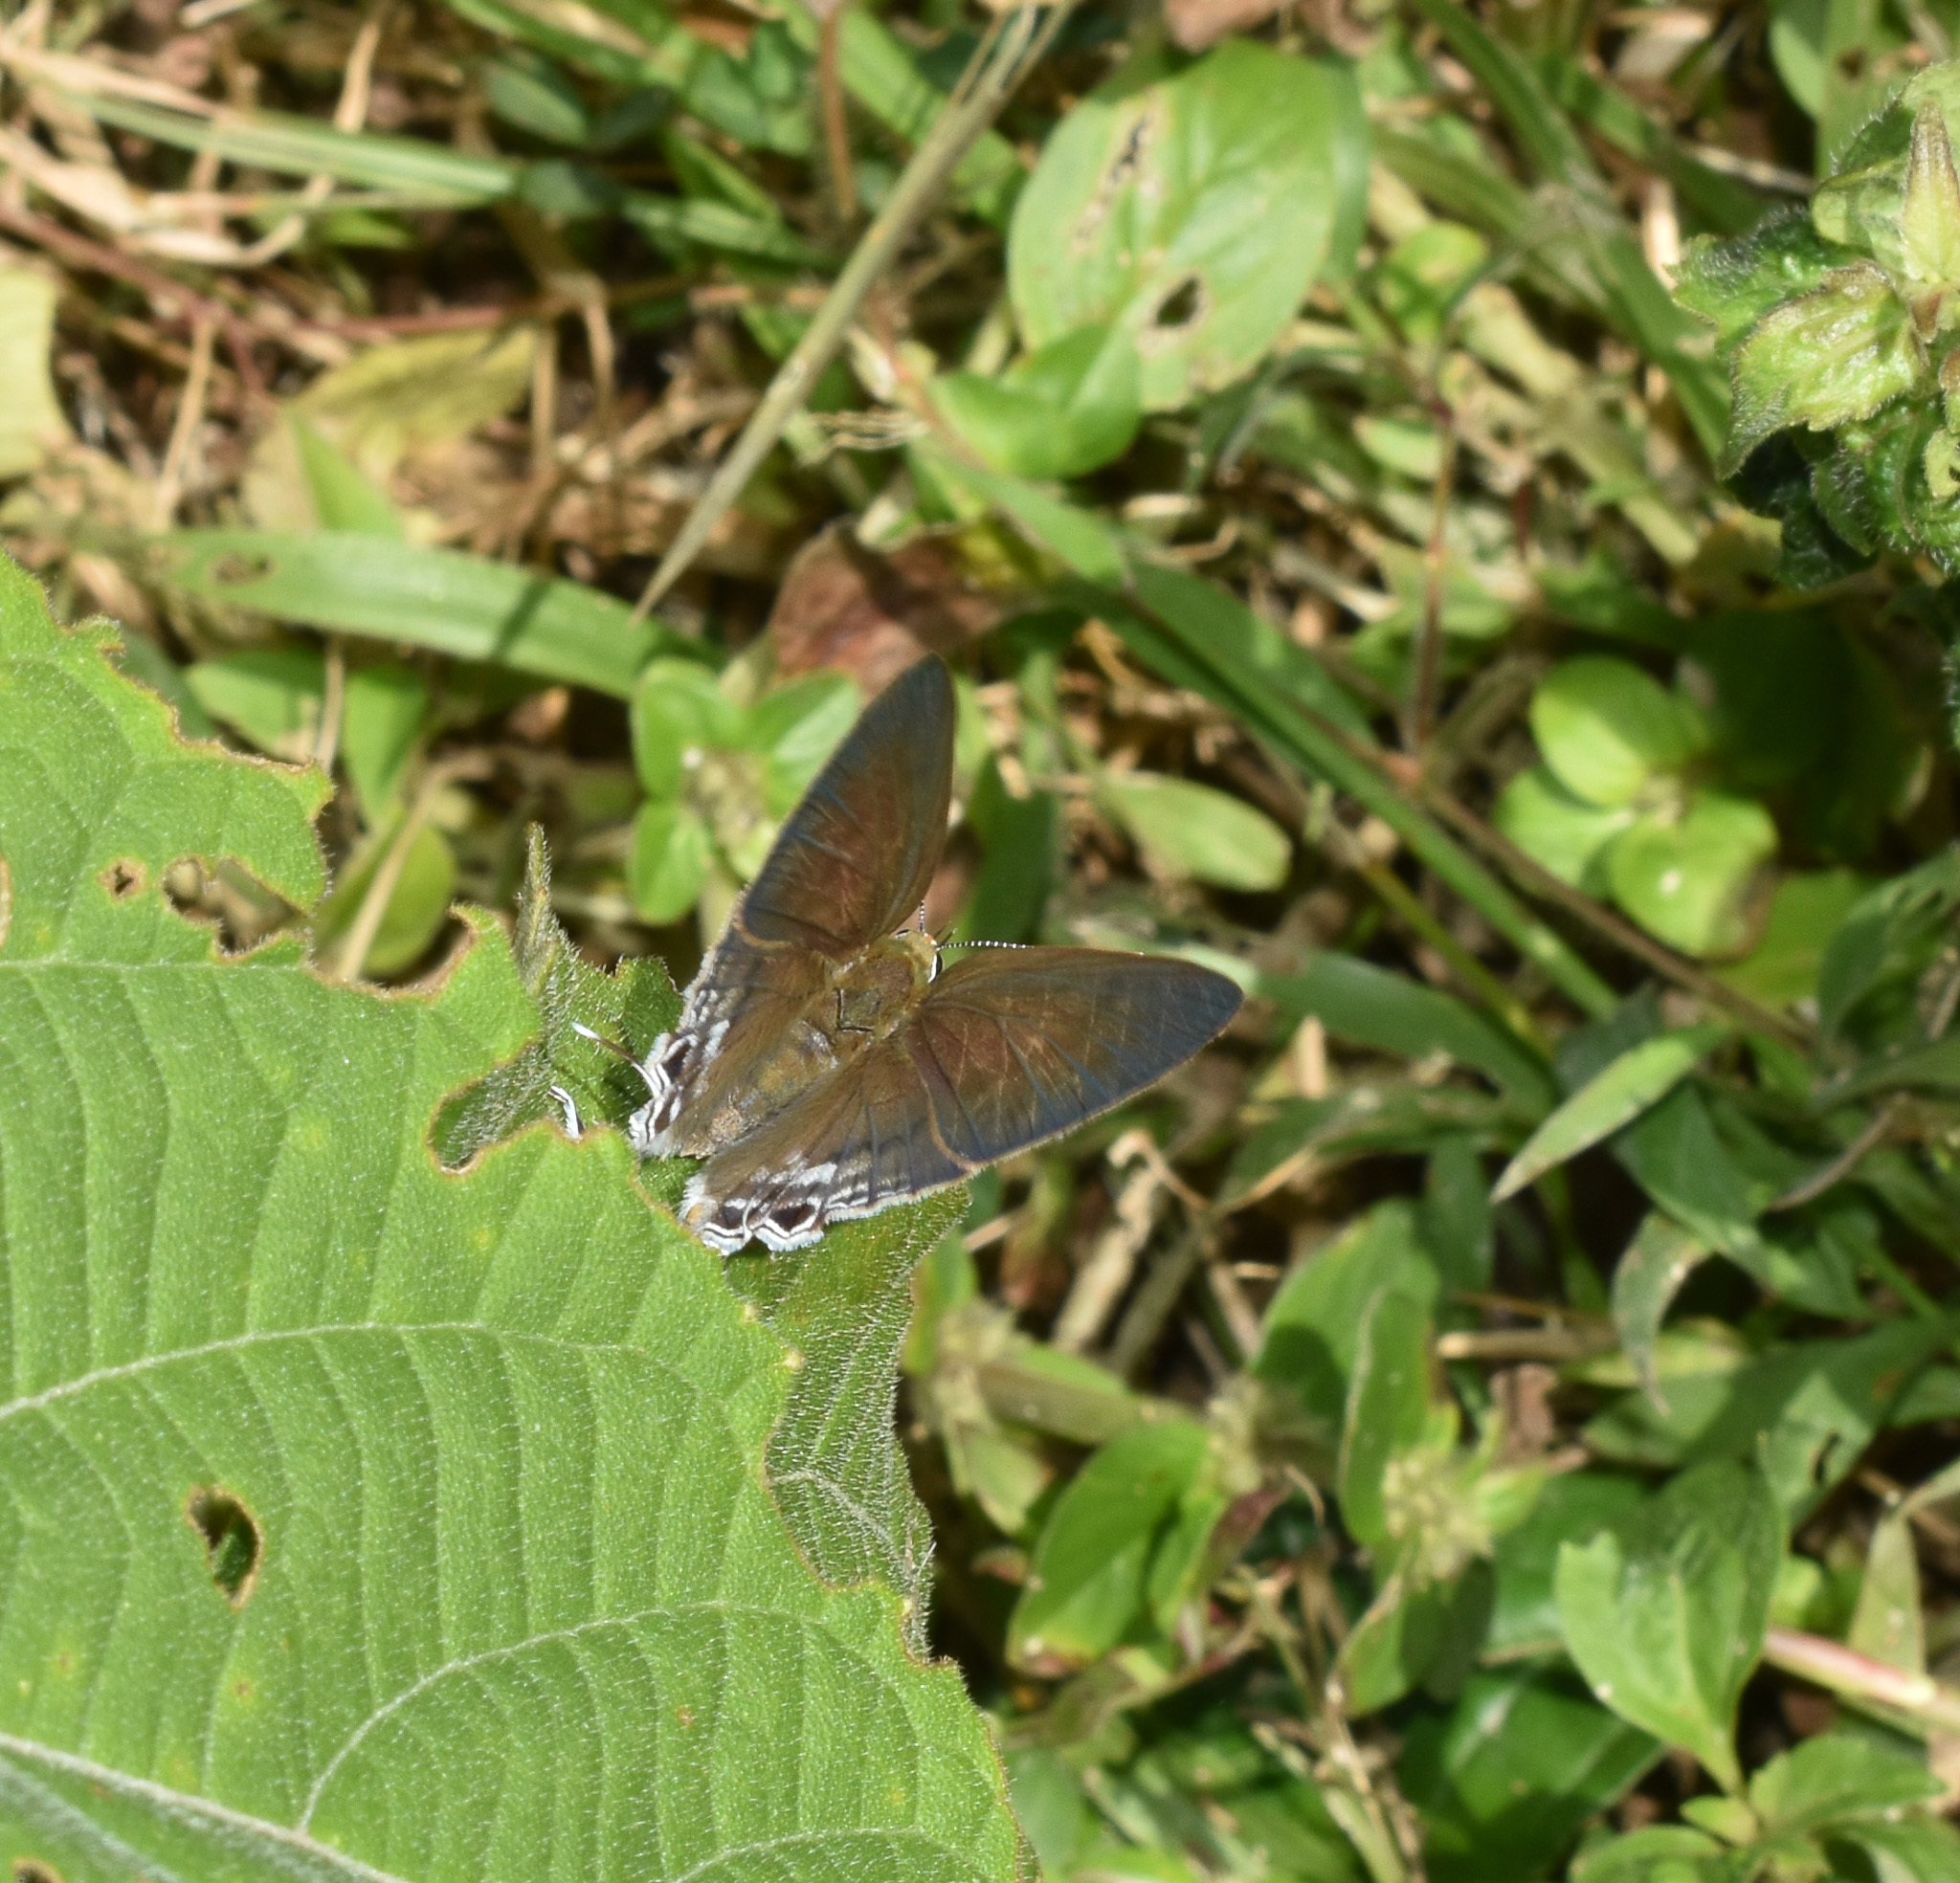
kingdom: Animalia
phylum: Arthropoda
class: Insecta
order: Lepidoptera
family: Lycaenidae
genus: Hypolycaena
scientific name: Hypolycaena erylus
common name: Common tit
